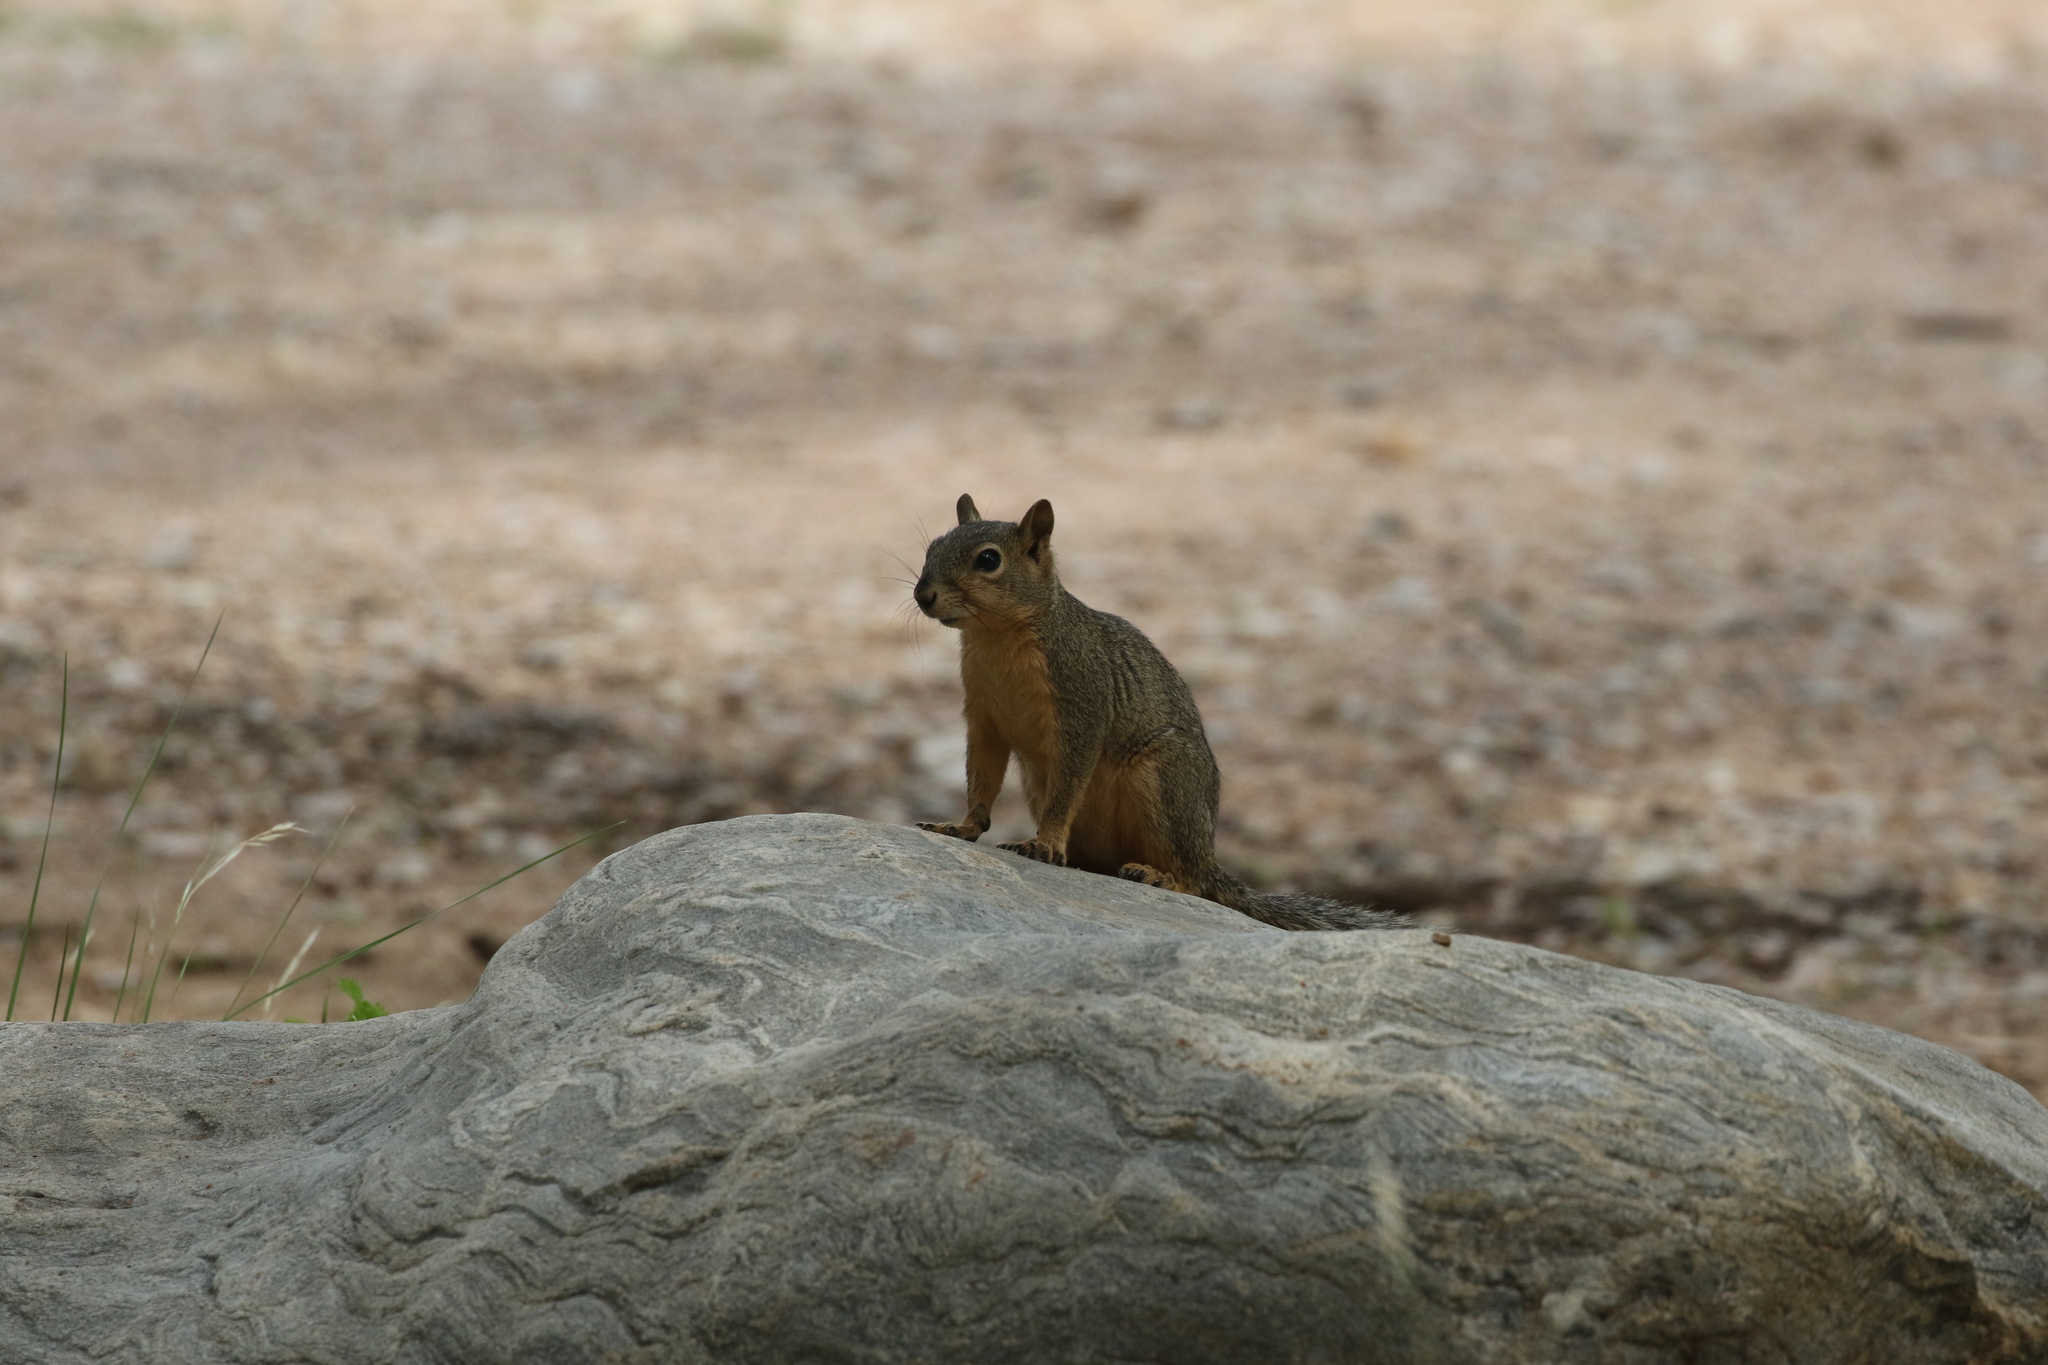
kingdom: Animalia
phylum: Chordata
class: Mammalia
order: Rodentia
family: Sciuridae
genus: Sciurus
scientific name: Sciurus niger
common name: Fox squirrel
